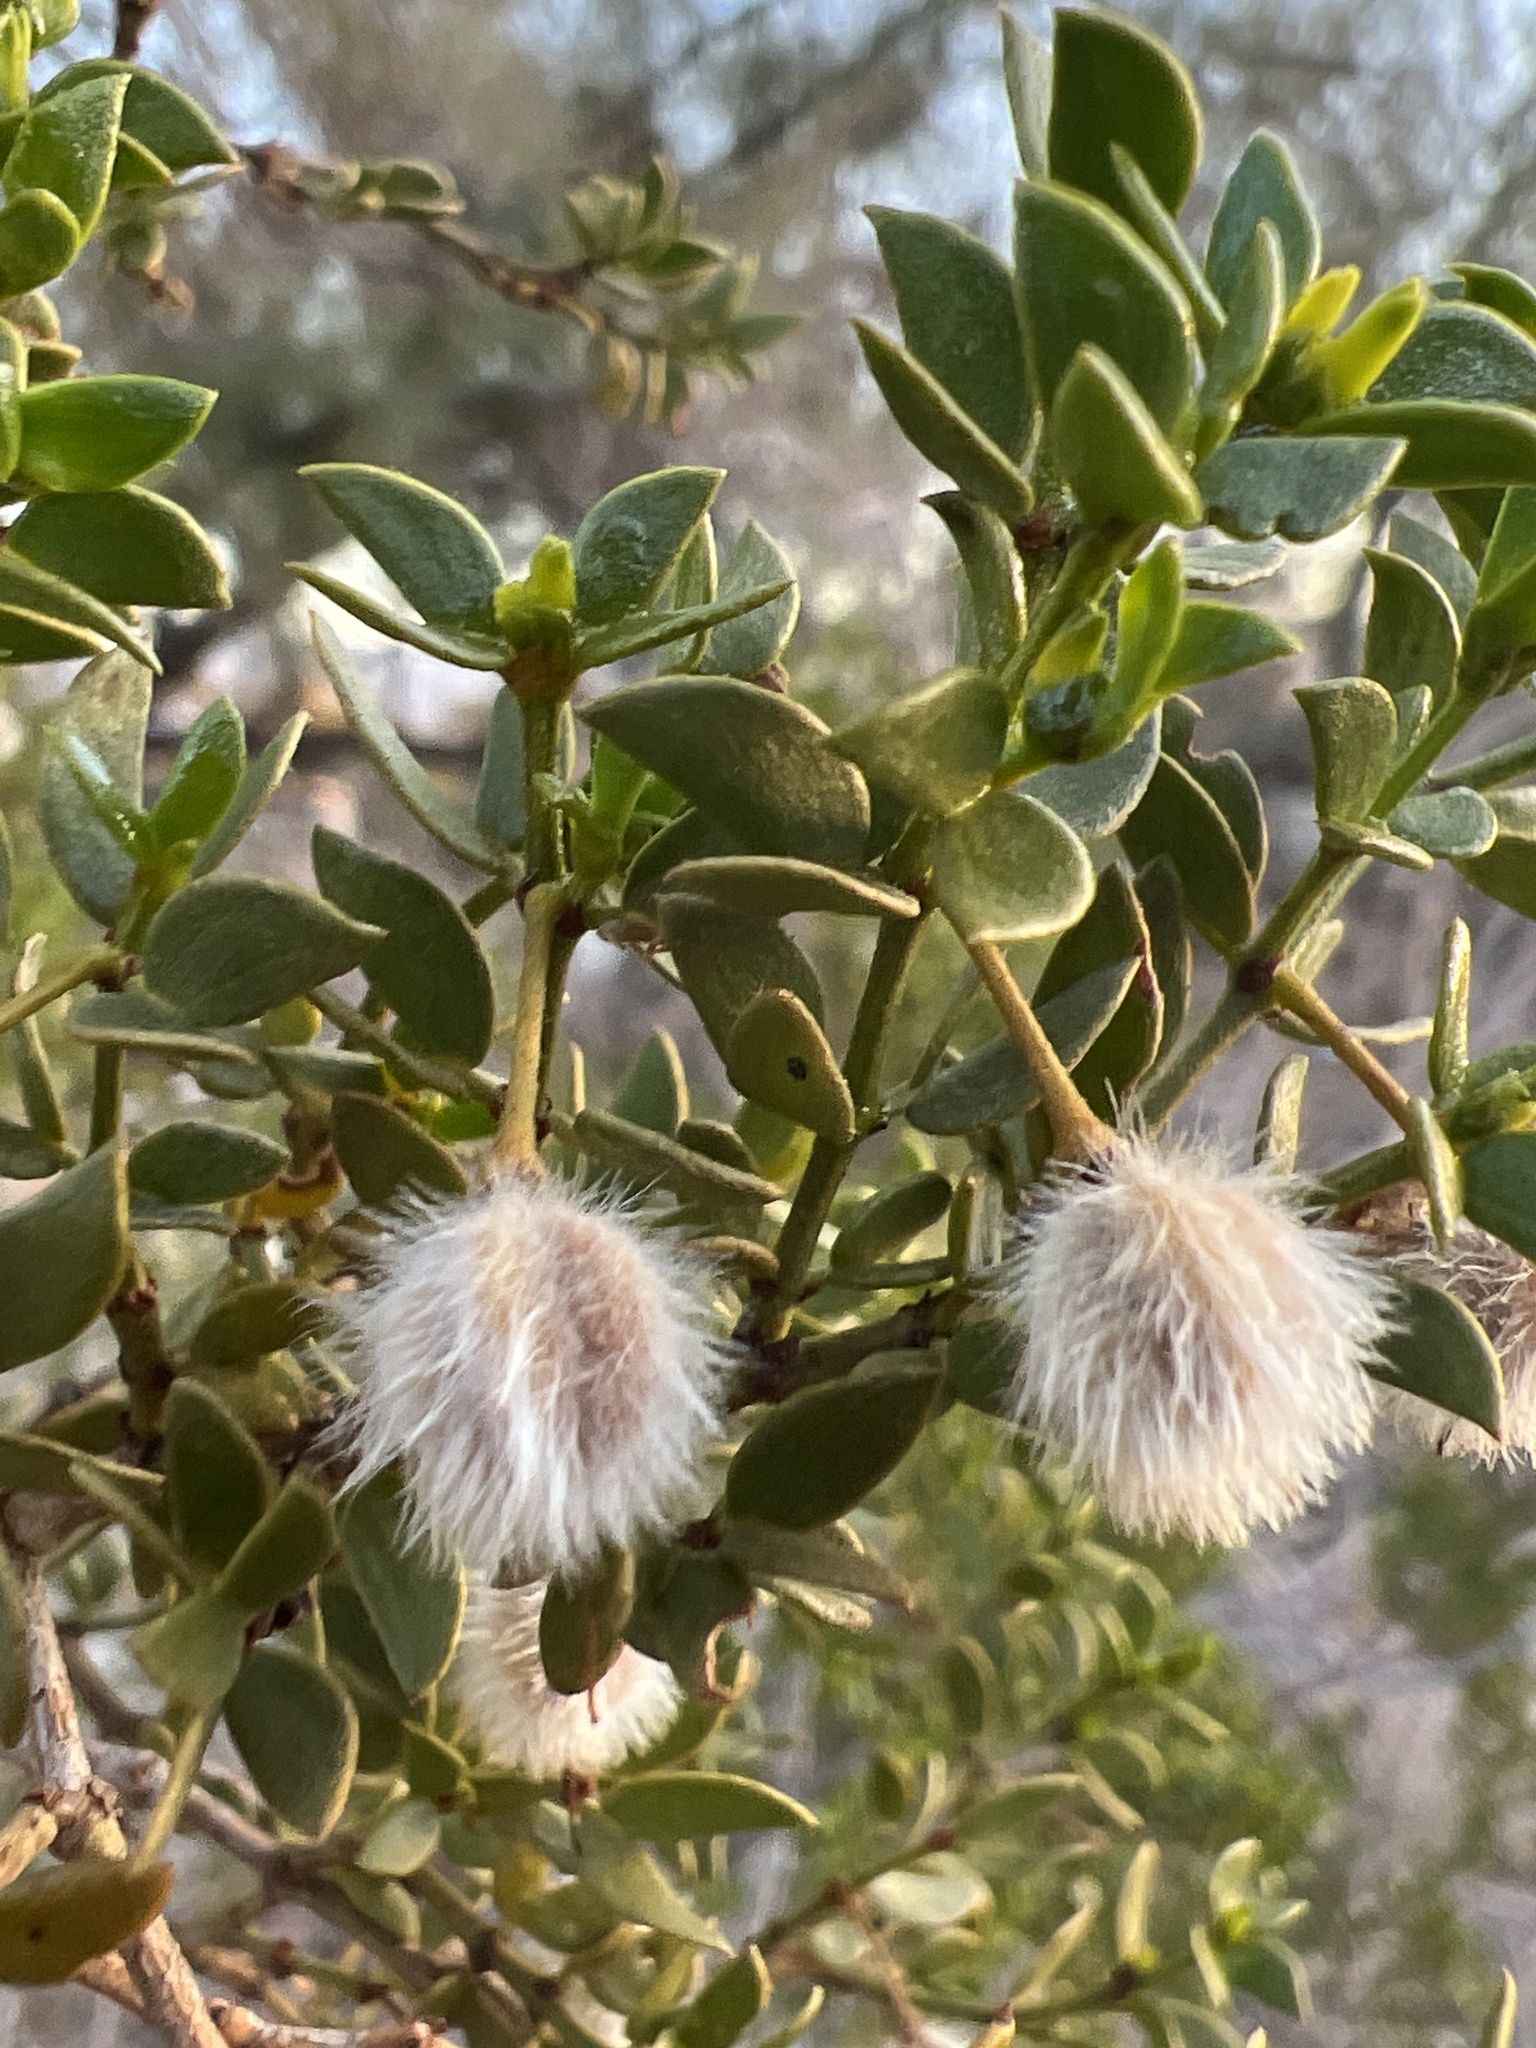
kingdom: Plantae
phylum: Tracheophyta
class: Magnoliopsida
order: Zygophyllales
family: Zygophyllaceae
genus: Larrea
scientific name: Larrea tridentata
